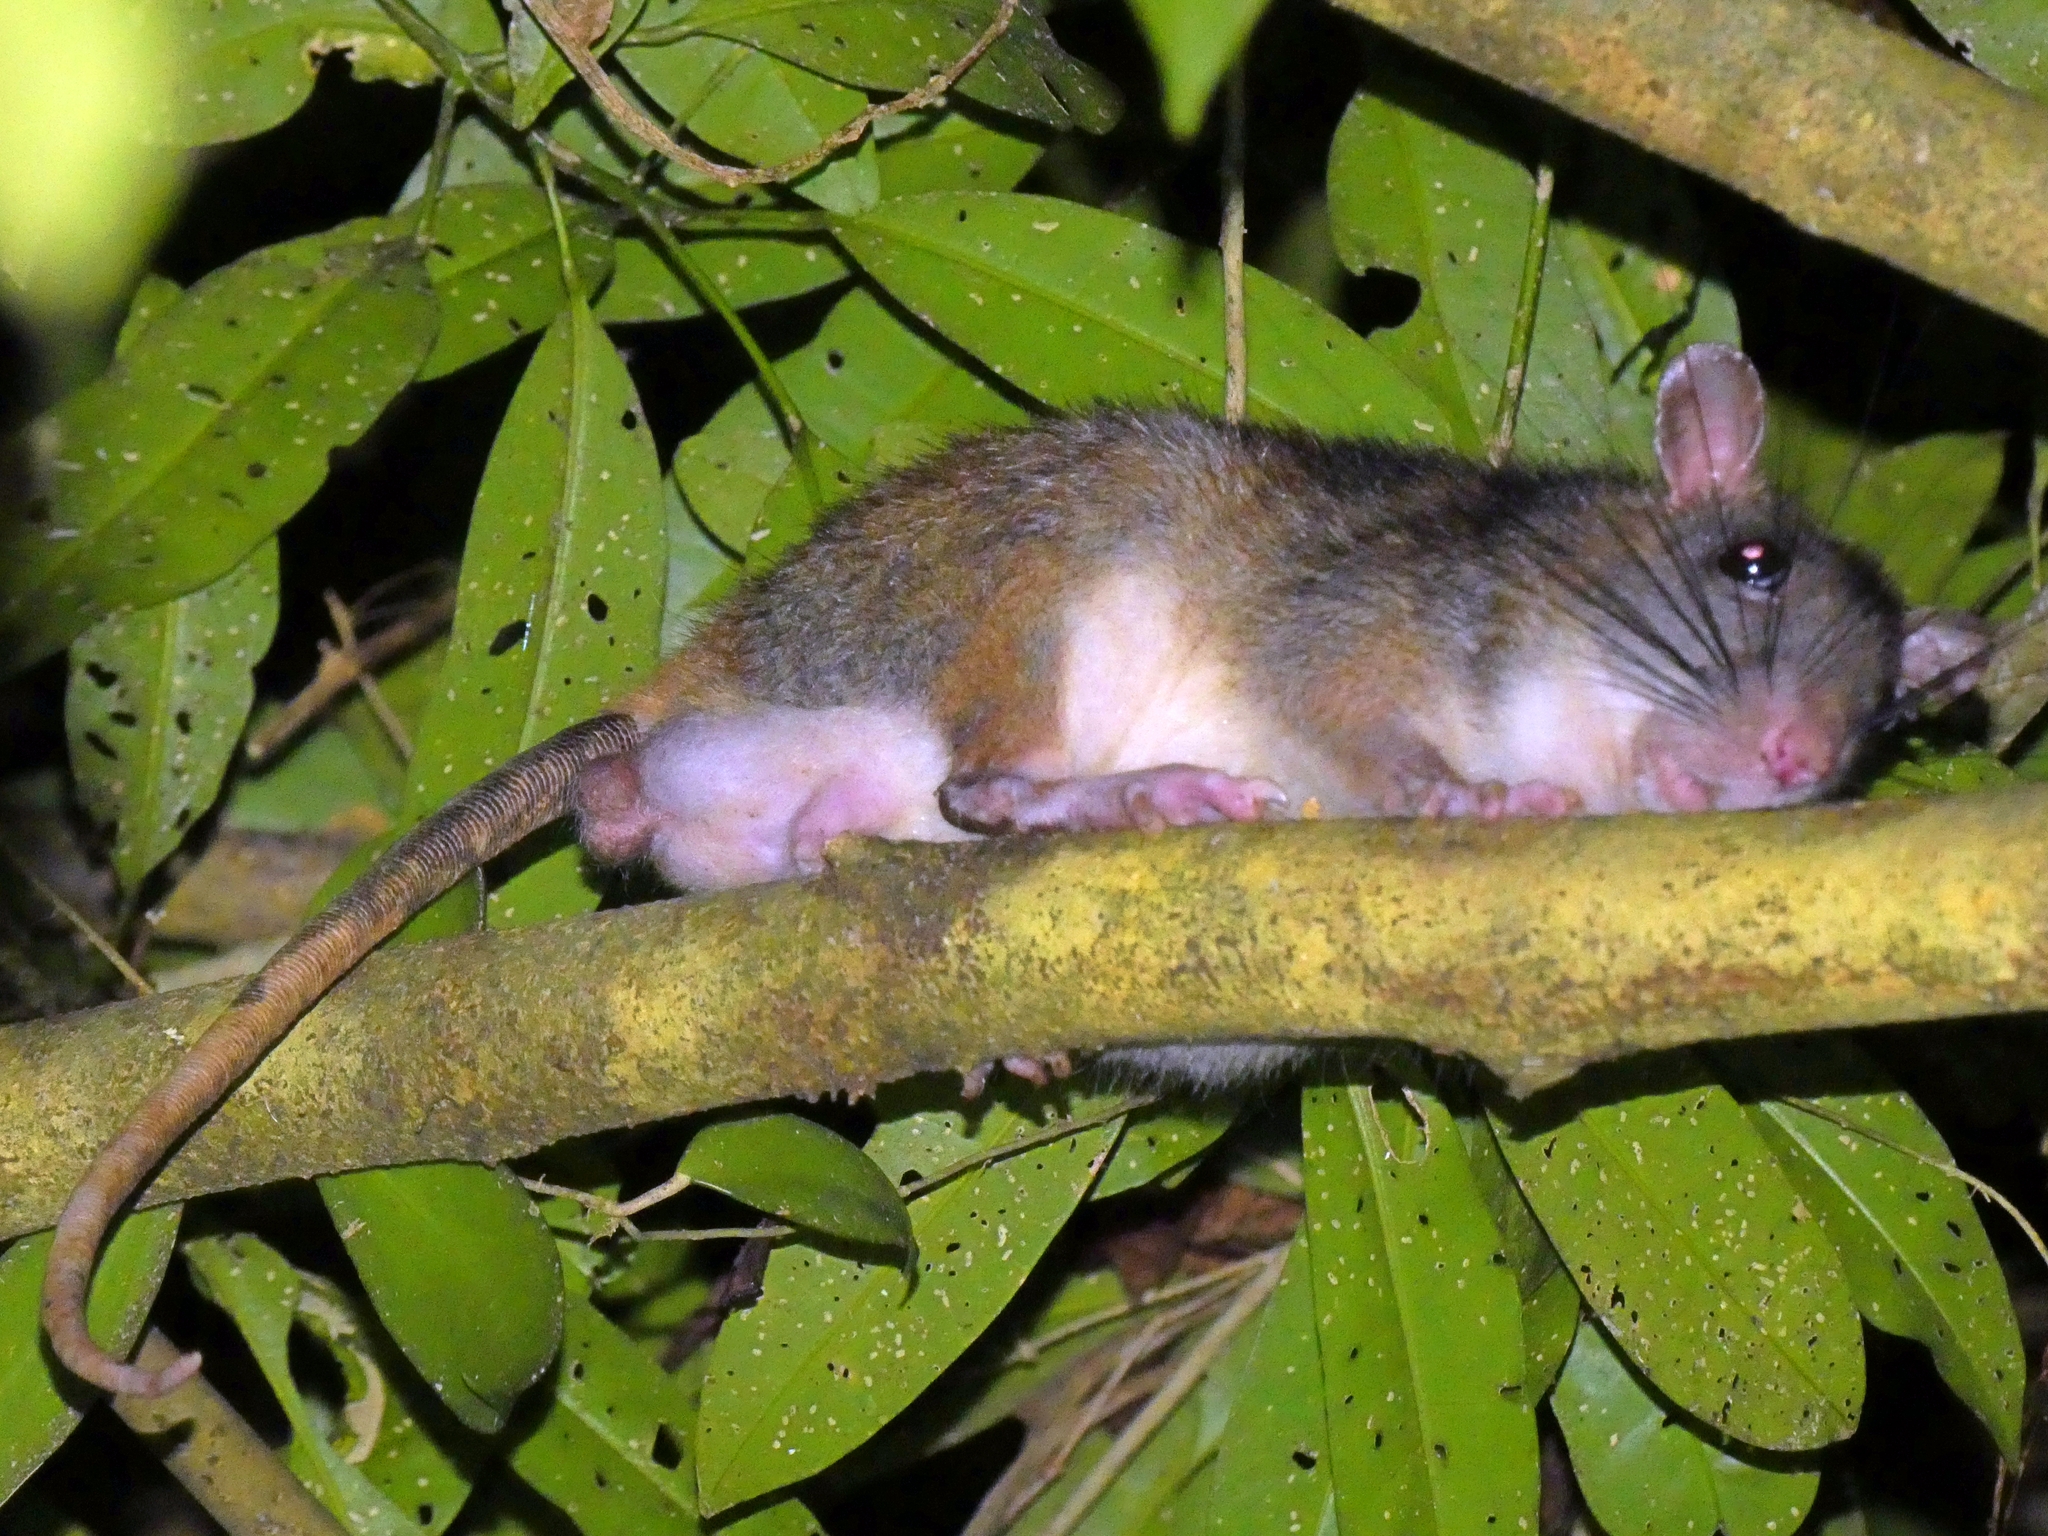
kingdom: Animalia
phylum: Chordata
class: Mammalia
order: Rodentia
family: Muridae
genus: Uromys
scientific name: Uromys caudimaculatus
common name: Giant white-tailed uromys
